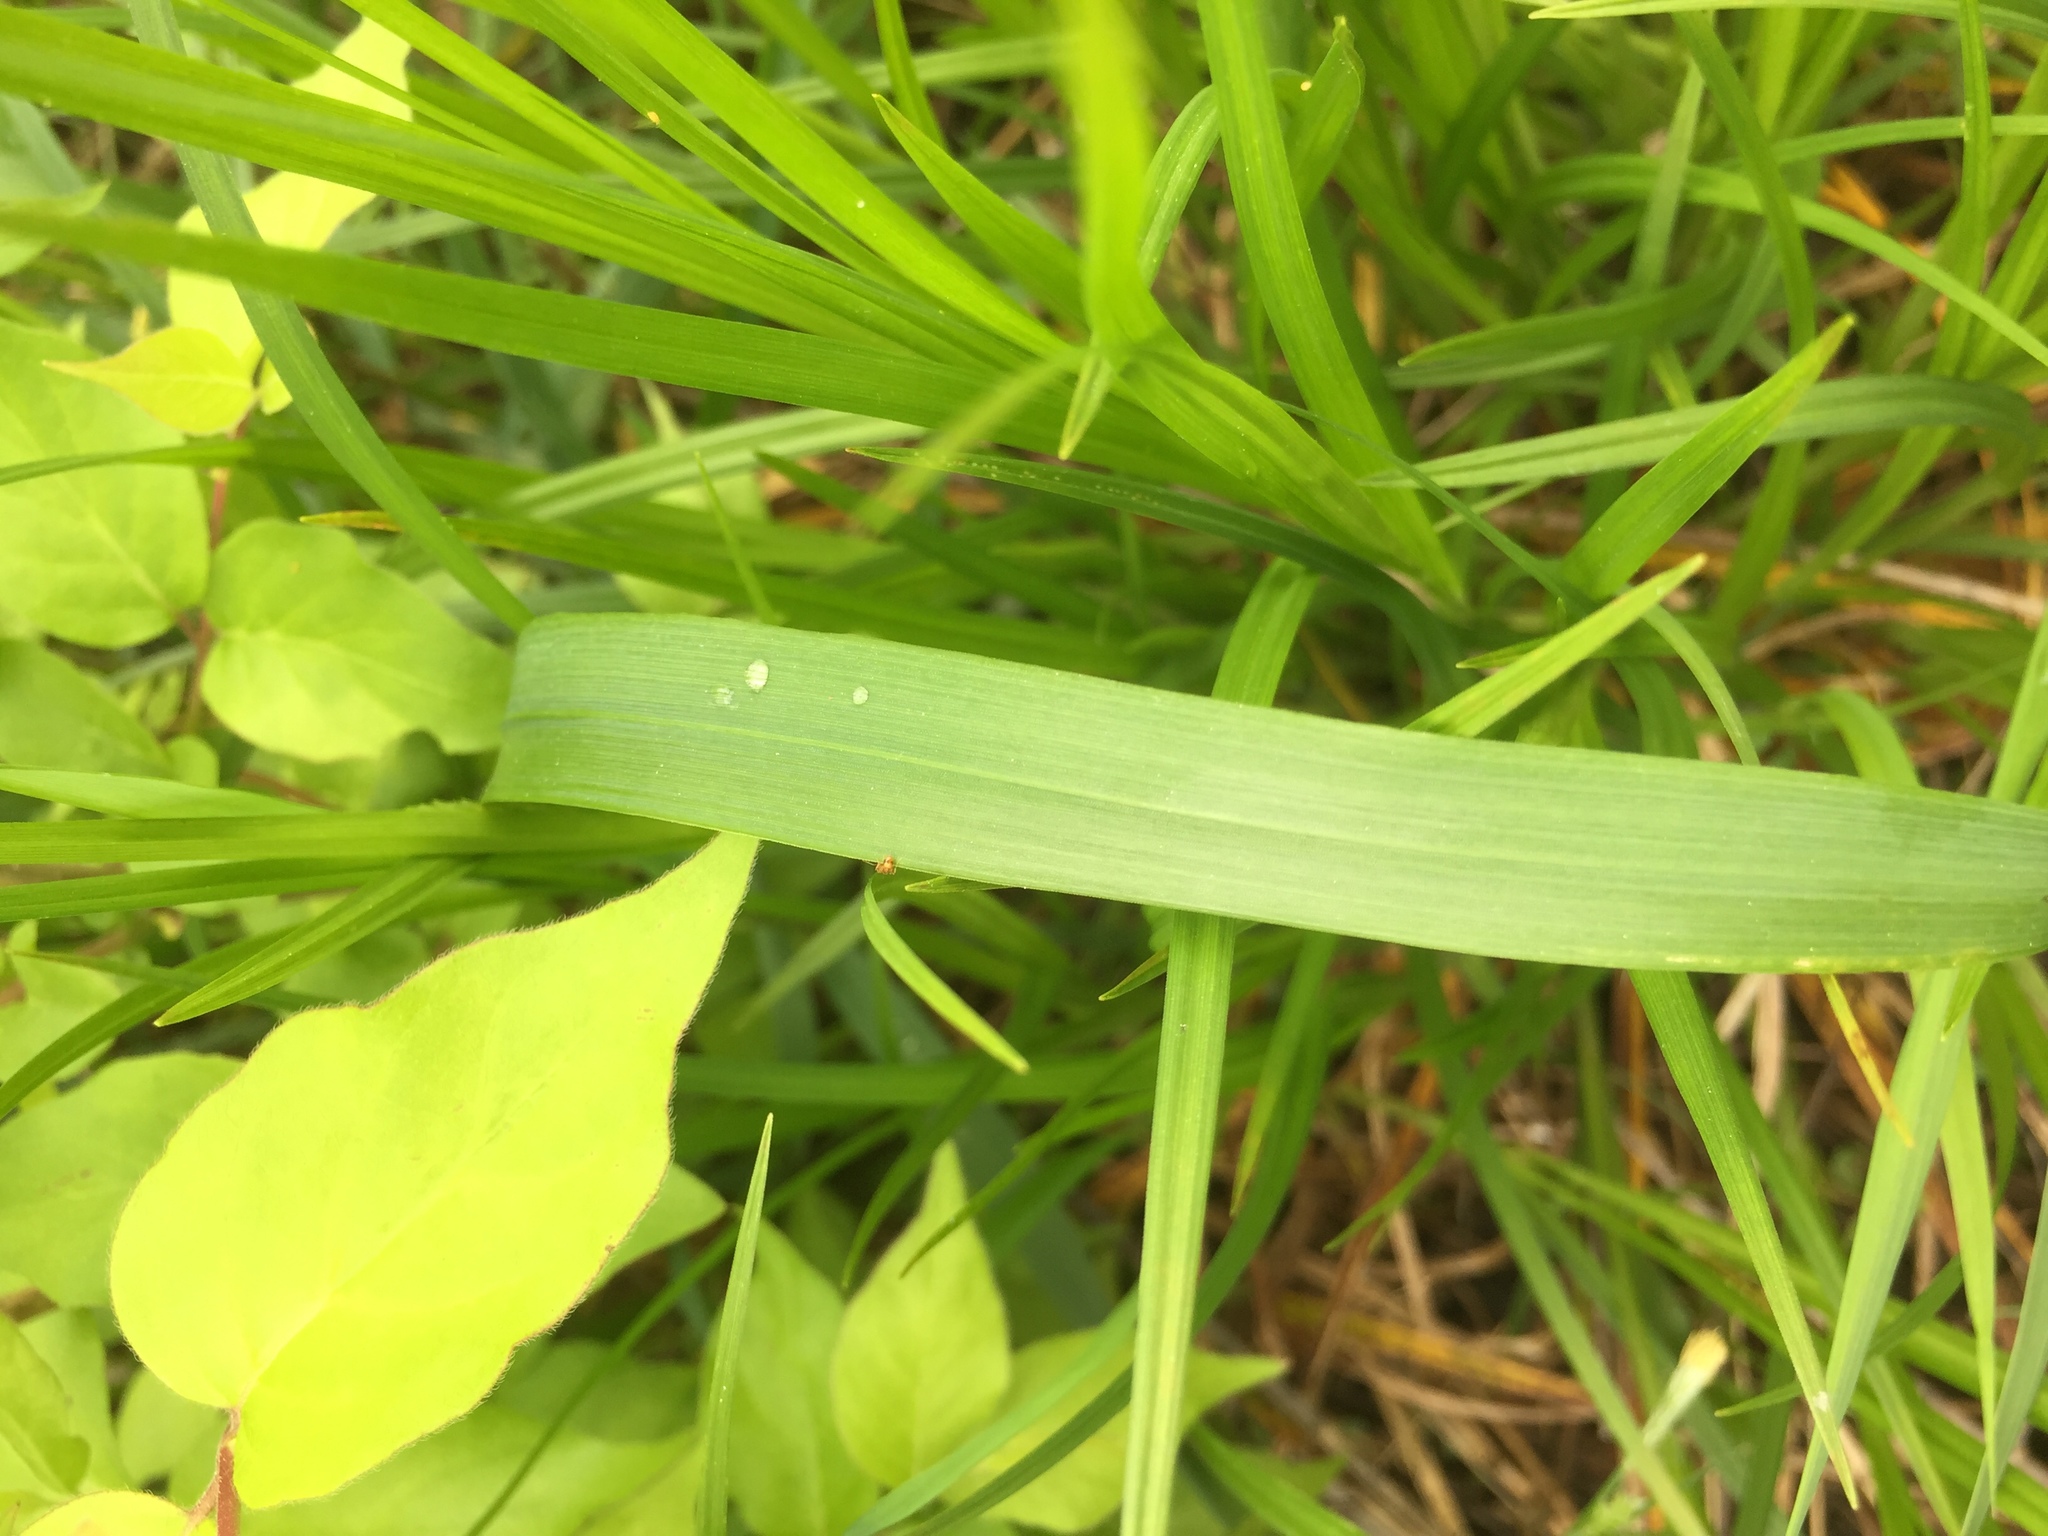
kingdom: Animalia
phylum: Arthropoda
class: Insecta
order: Hymenoptera
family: Formicidae
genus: Temnothorax
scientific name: Temnothorax curvispinosus
